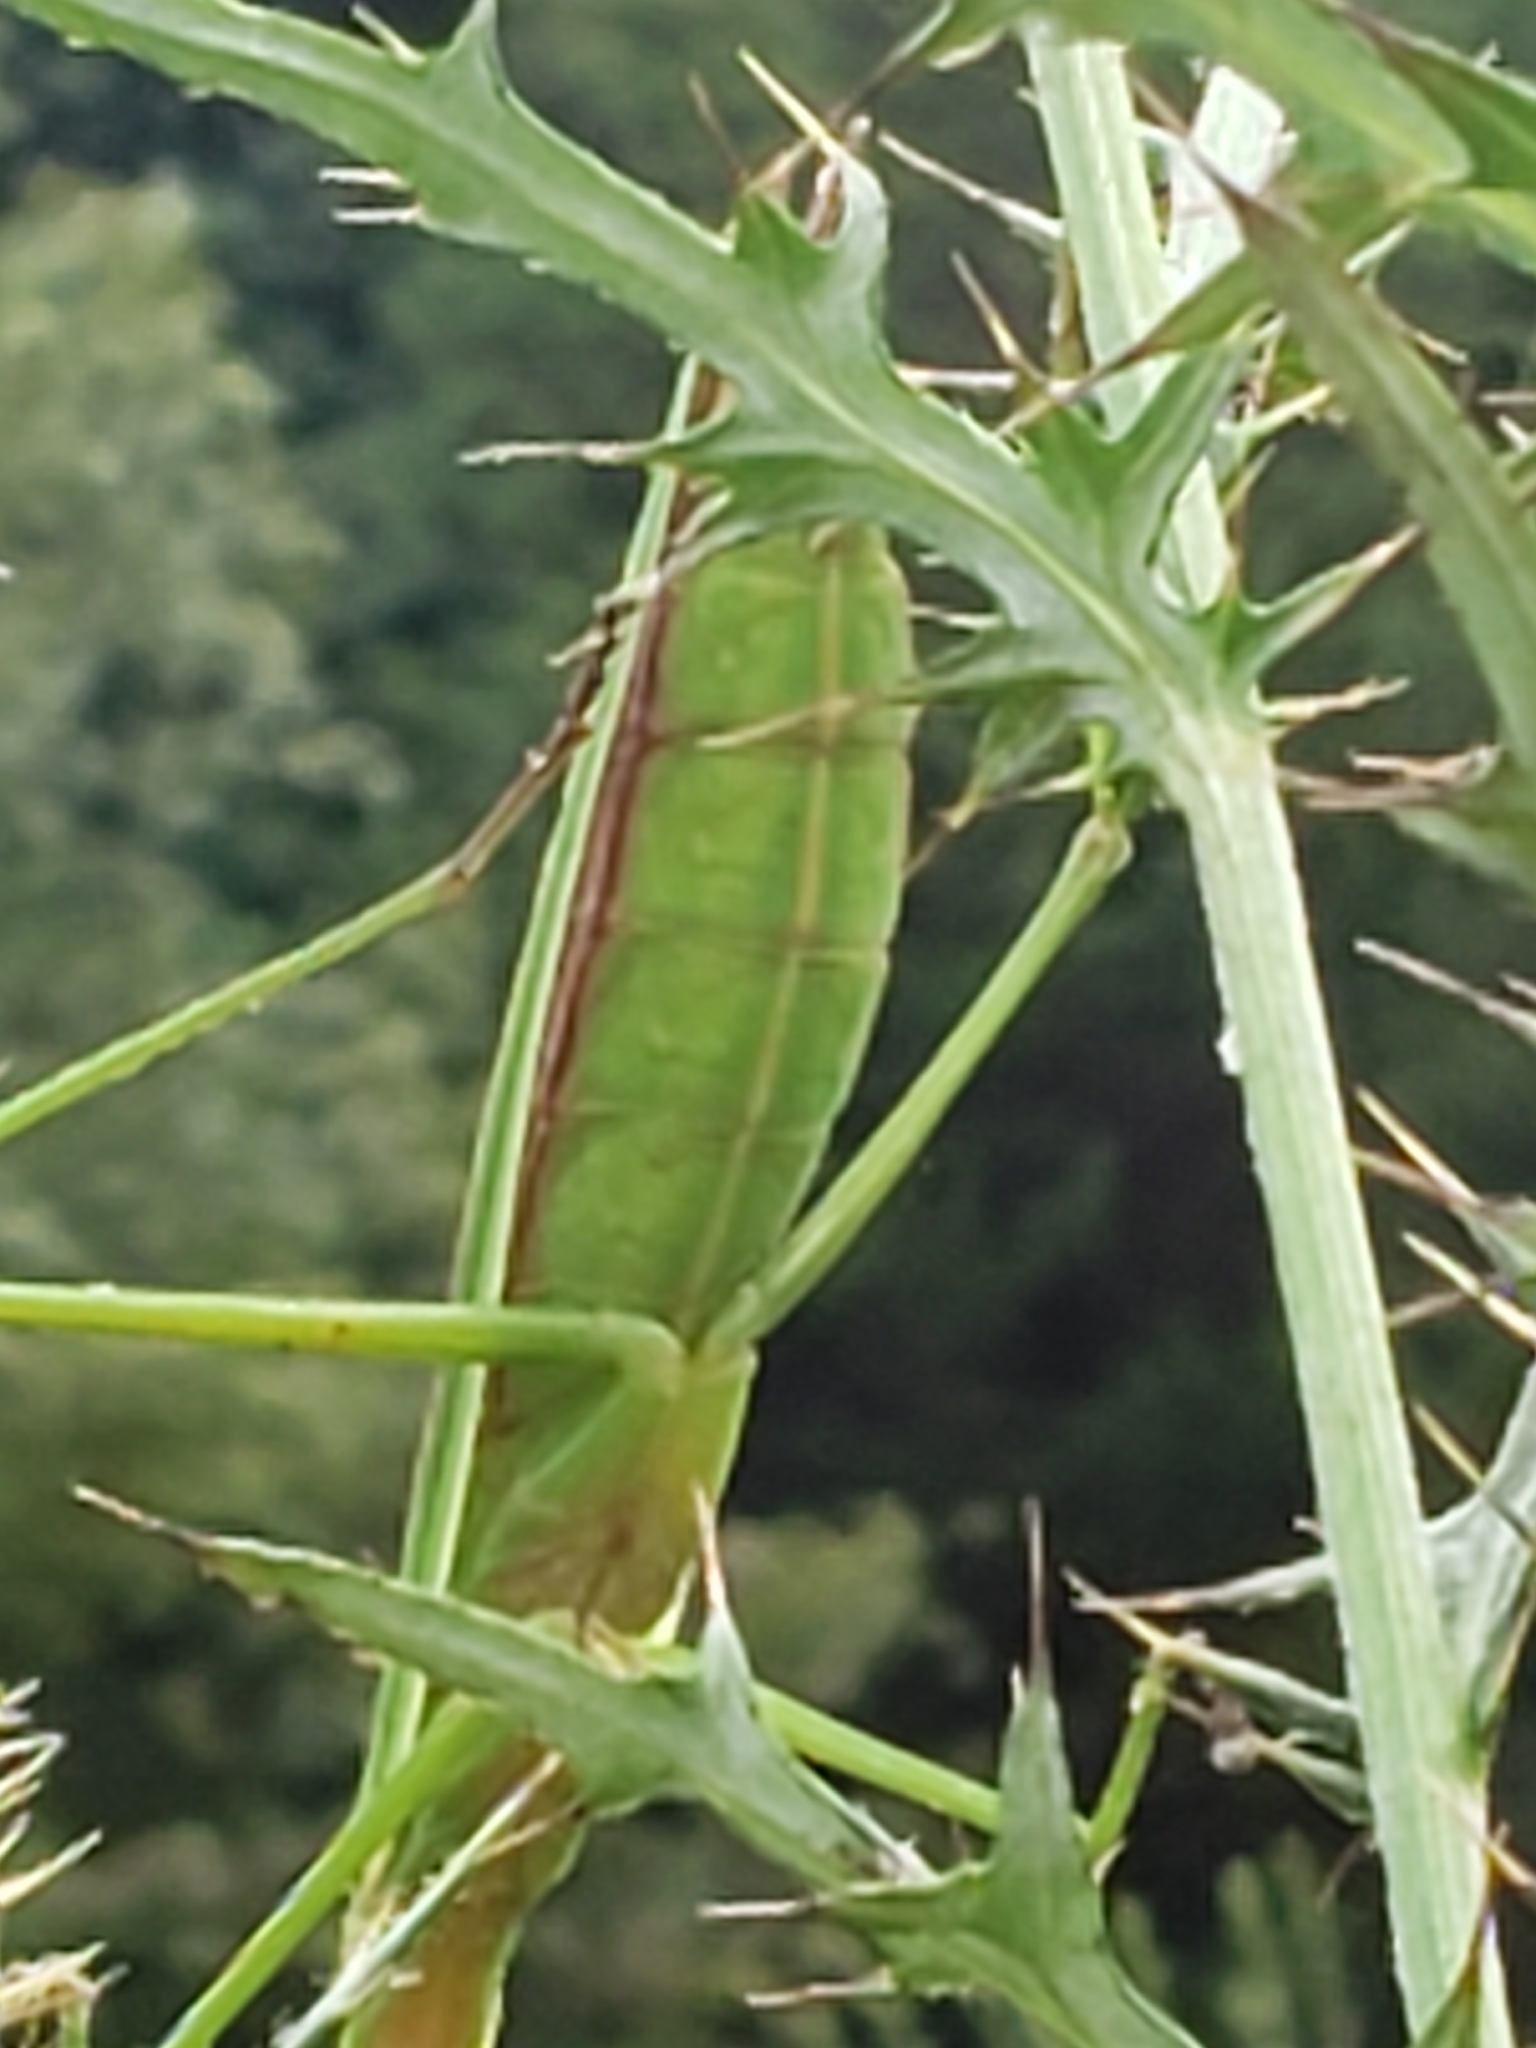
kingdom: Animalia
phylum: Arthropoda
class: Insecta
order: Mantodea
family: Mantidae
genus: Tenodera
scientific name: Tenodera sinensis
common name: Chinese mantis
